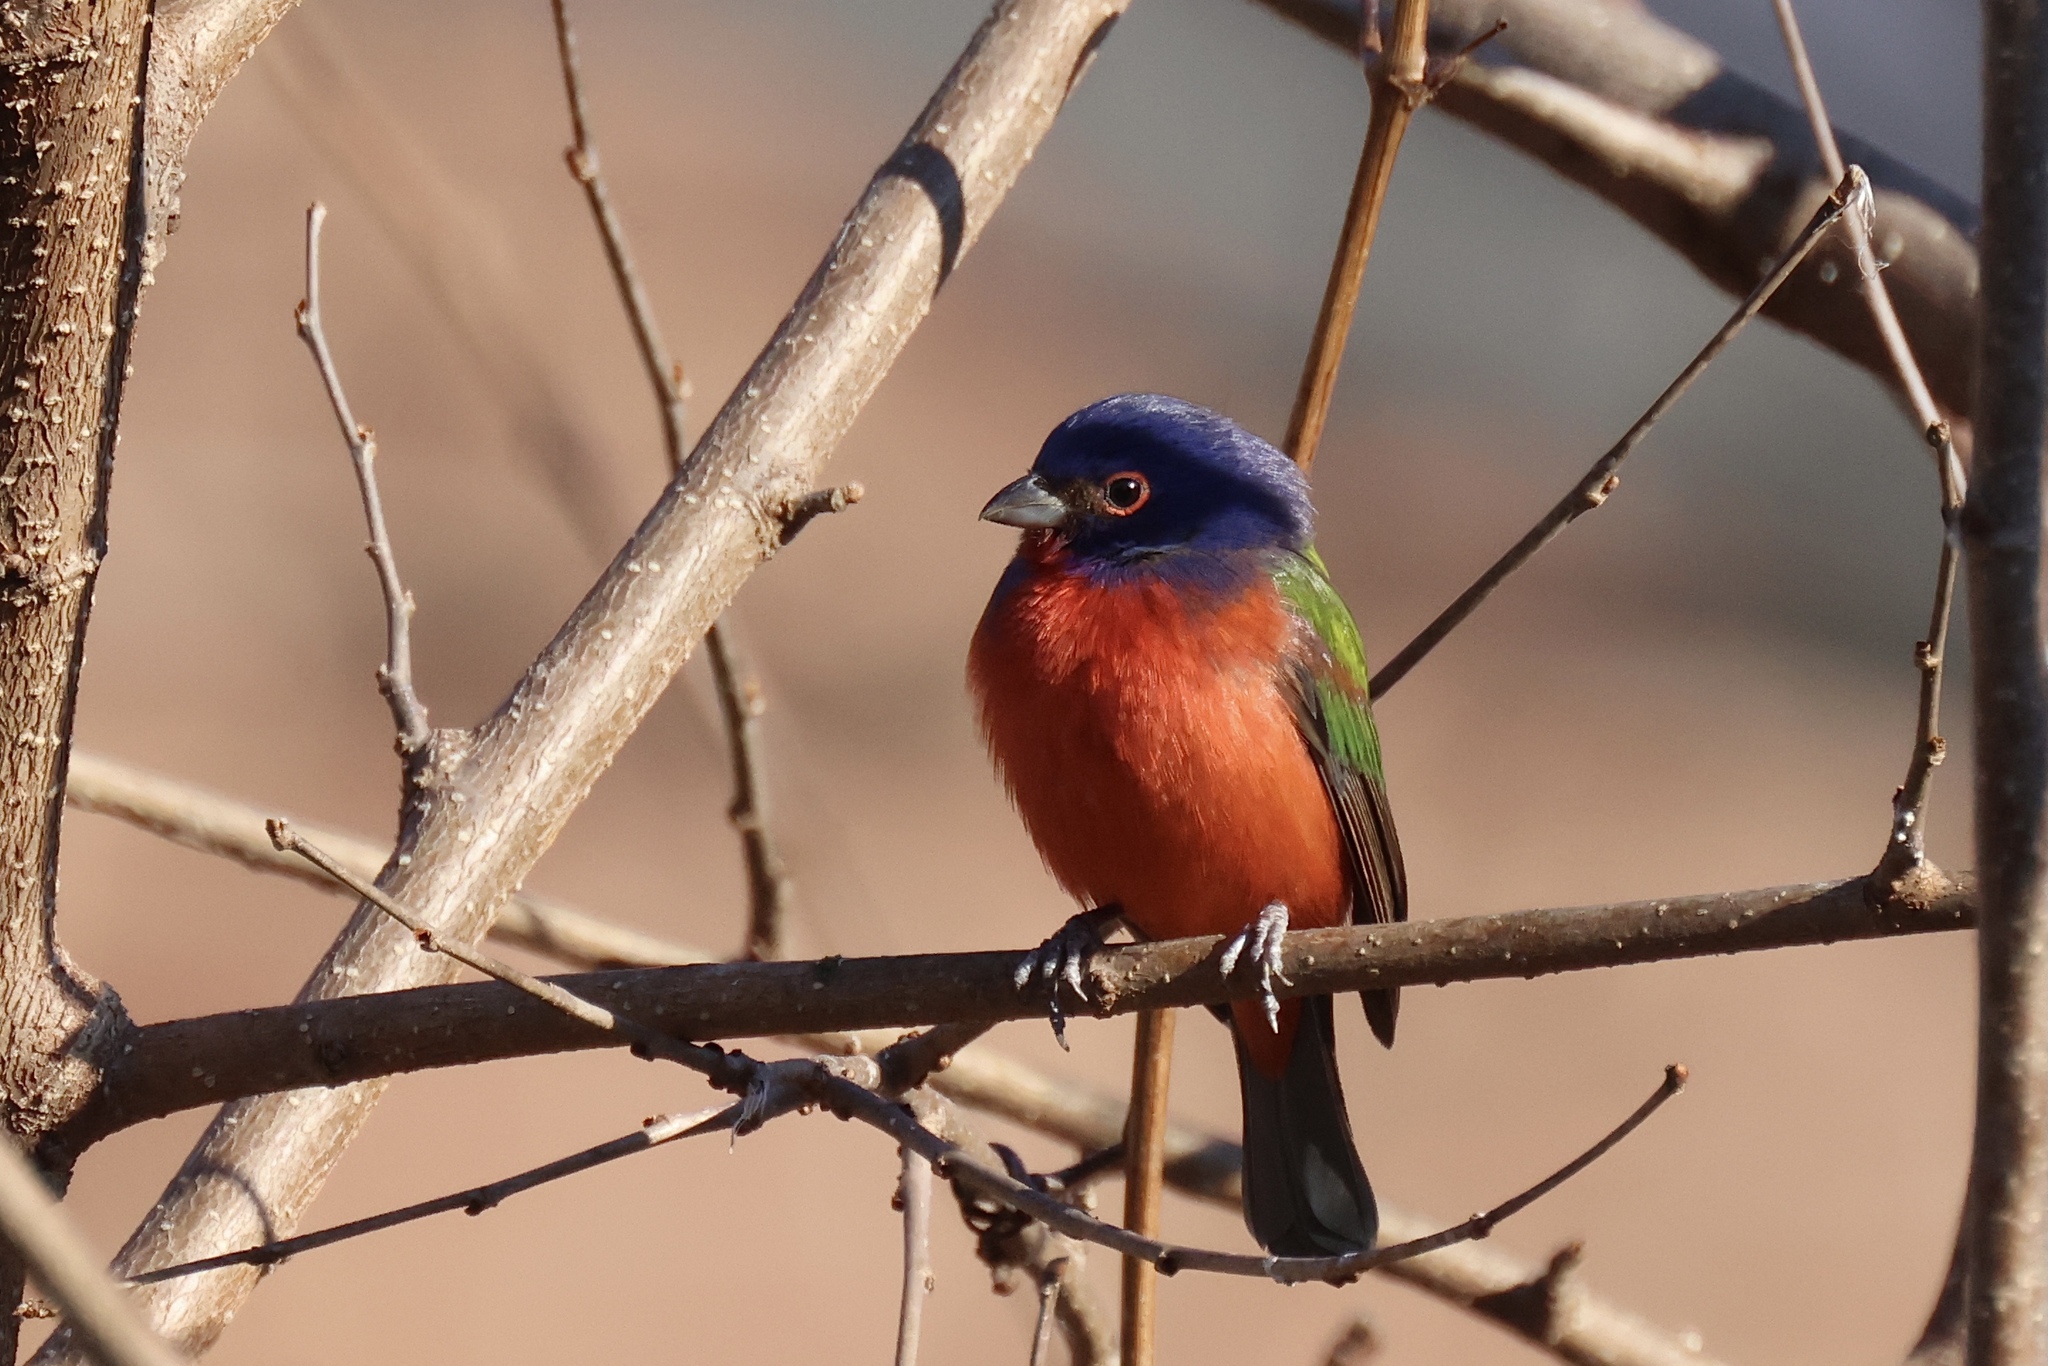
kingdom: Animalia
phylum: Chordata
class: Aves
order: Passeriformes
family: Cardinalidae
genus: Passerina
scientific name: Passerina ciris
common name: Painted bunting
